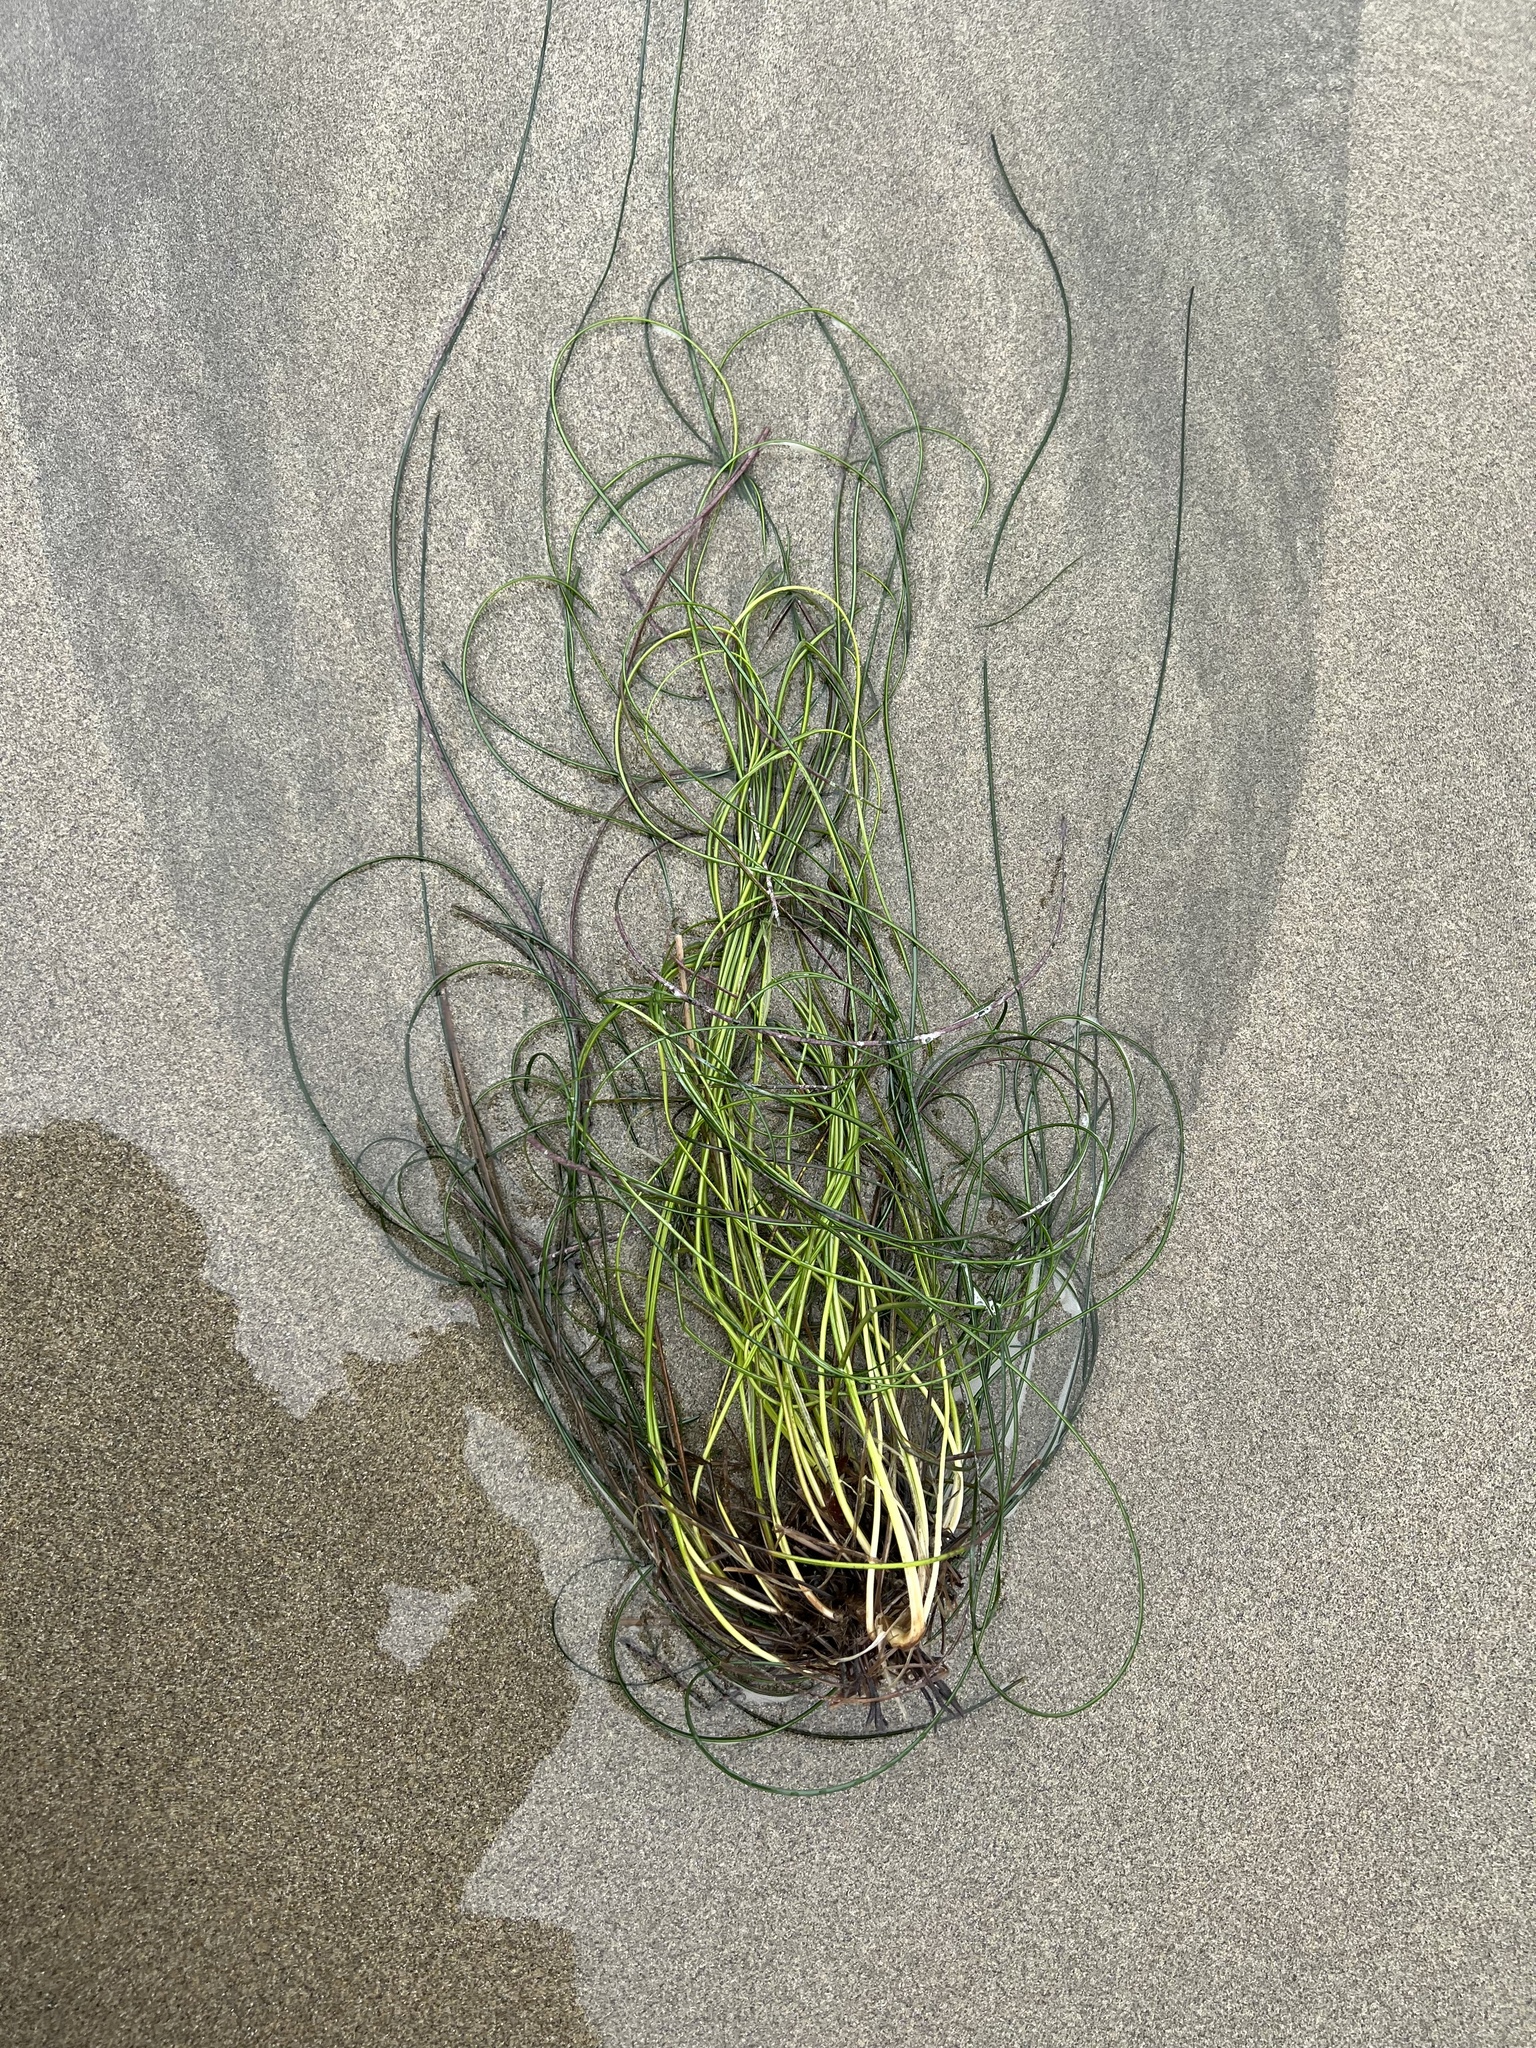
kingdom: Plantae
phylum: Tracheophyta
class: Liliopsida
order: Alismatales
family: Zosteraceae
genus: Phyllospadix
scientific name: Phyllospadix torreyi
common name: Surfgrass
